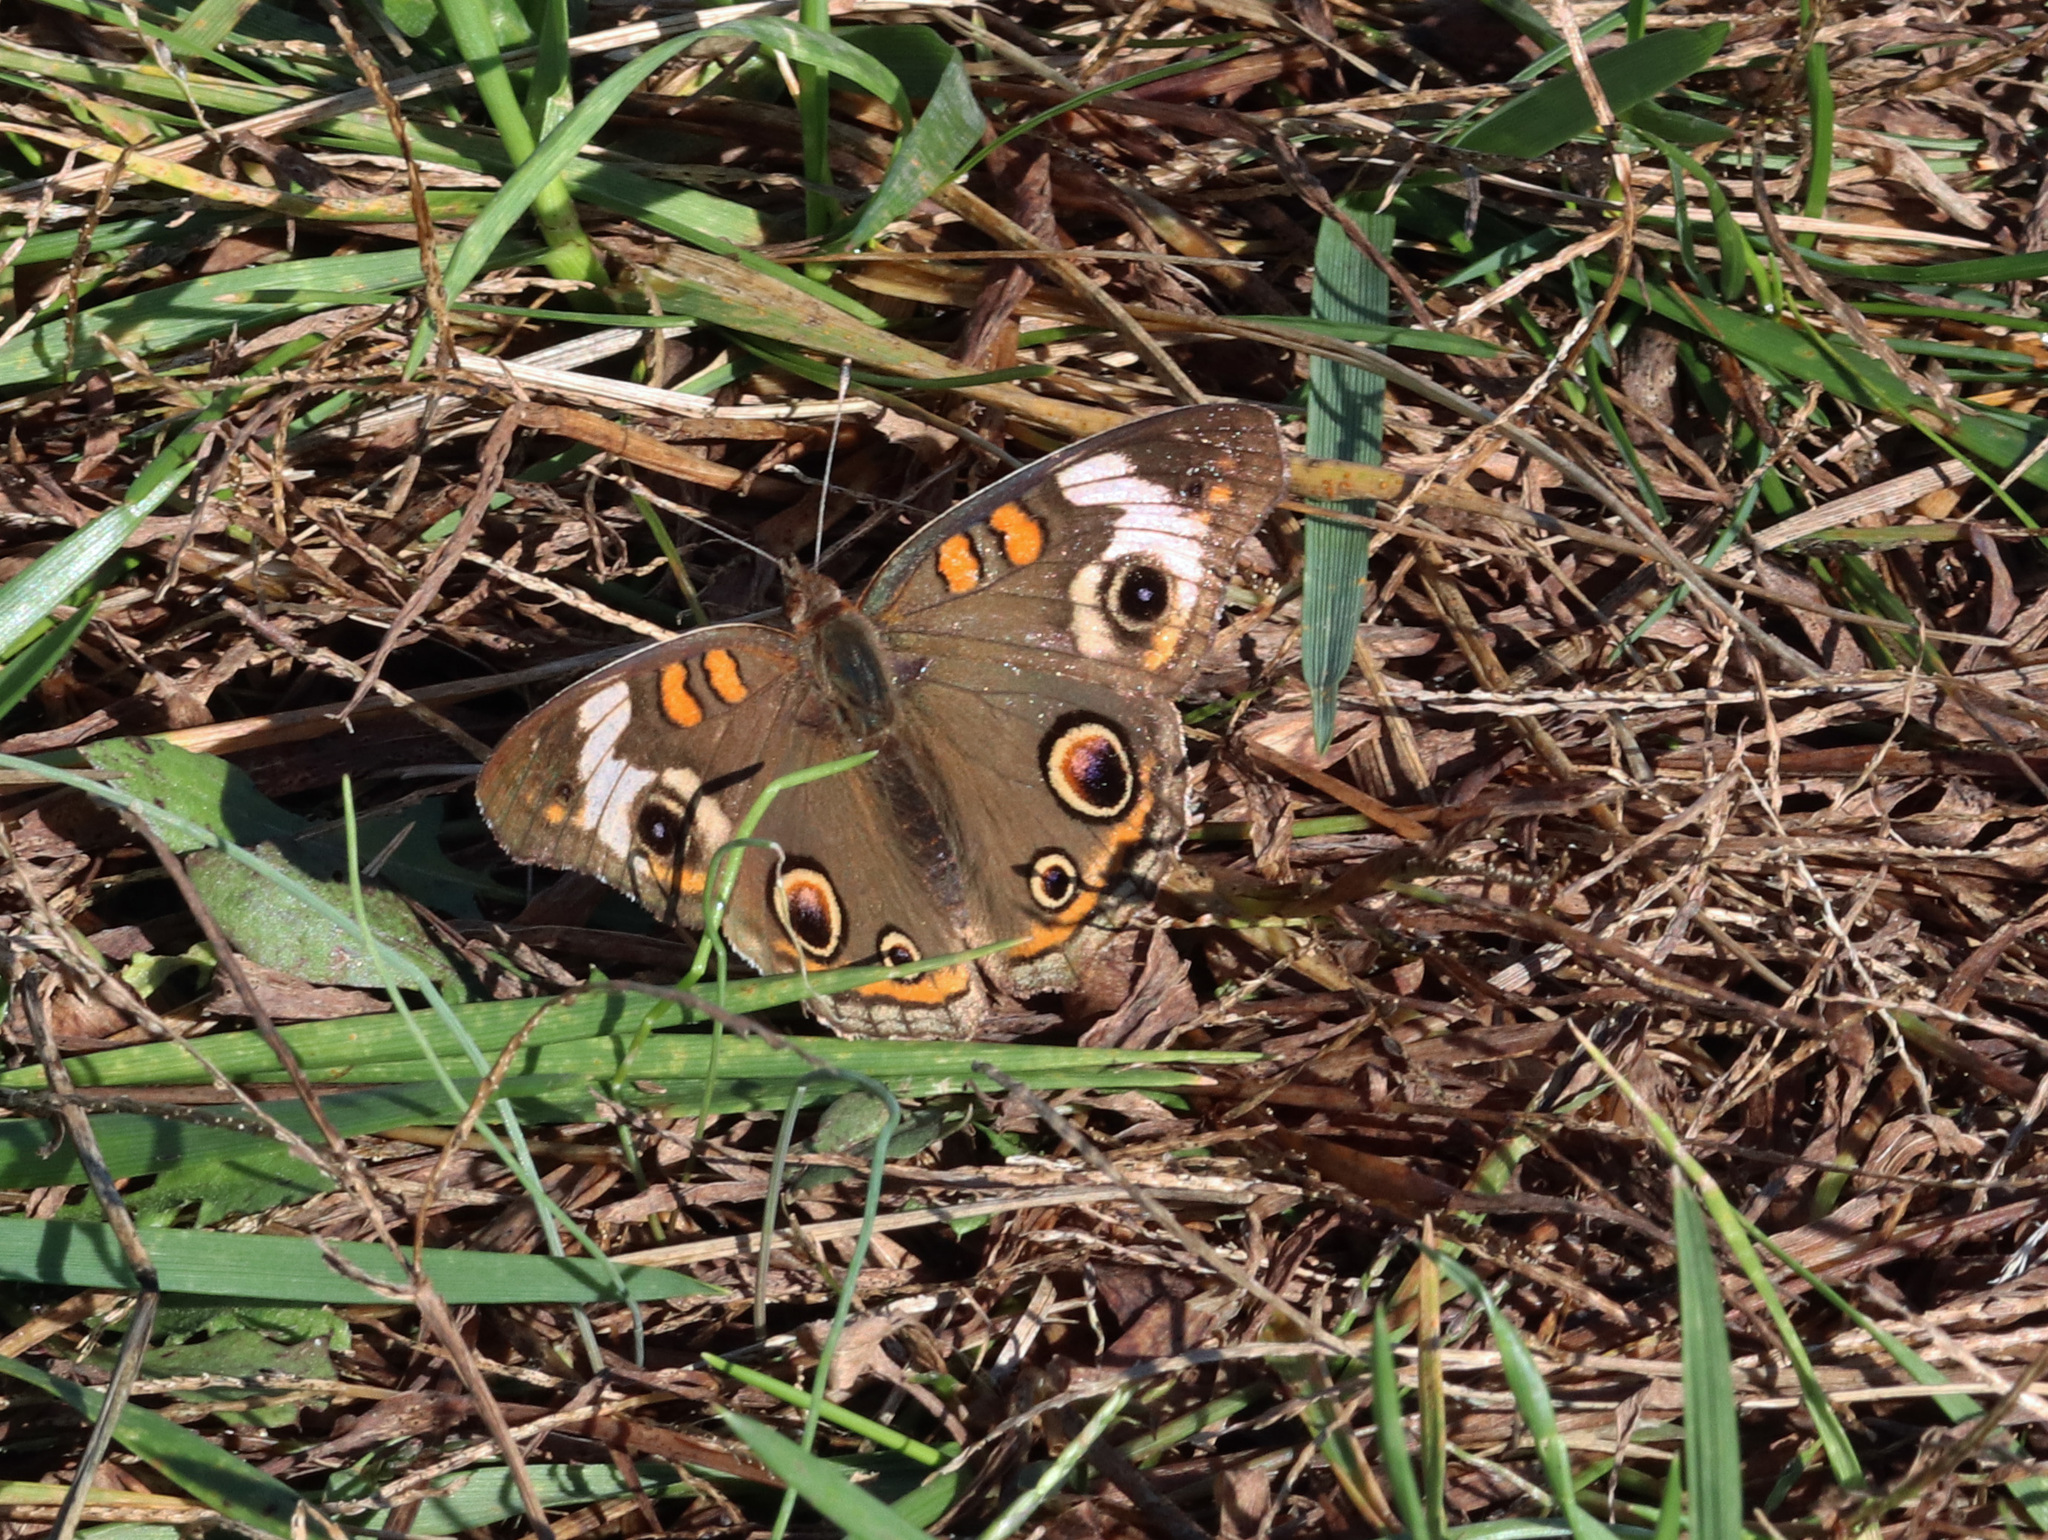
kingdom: Animalia
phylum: Arthropoda
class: Insecta
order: Lepidoptera
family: Nymphalidae
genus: Junonia
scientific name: Junonia coenia
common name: Common buckeye
